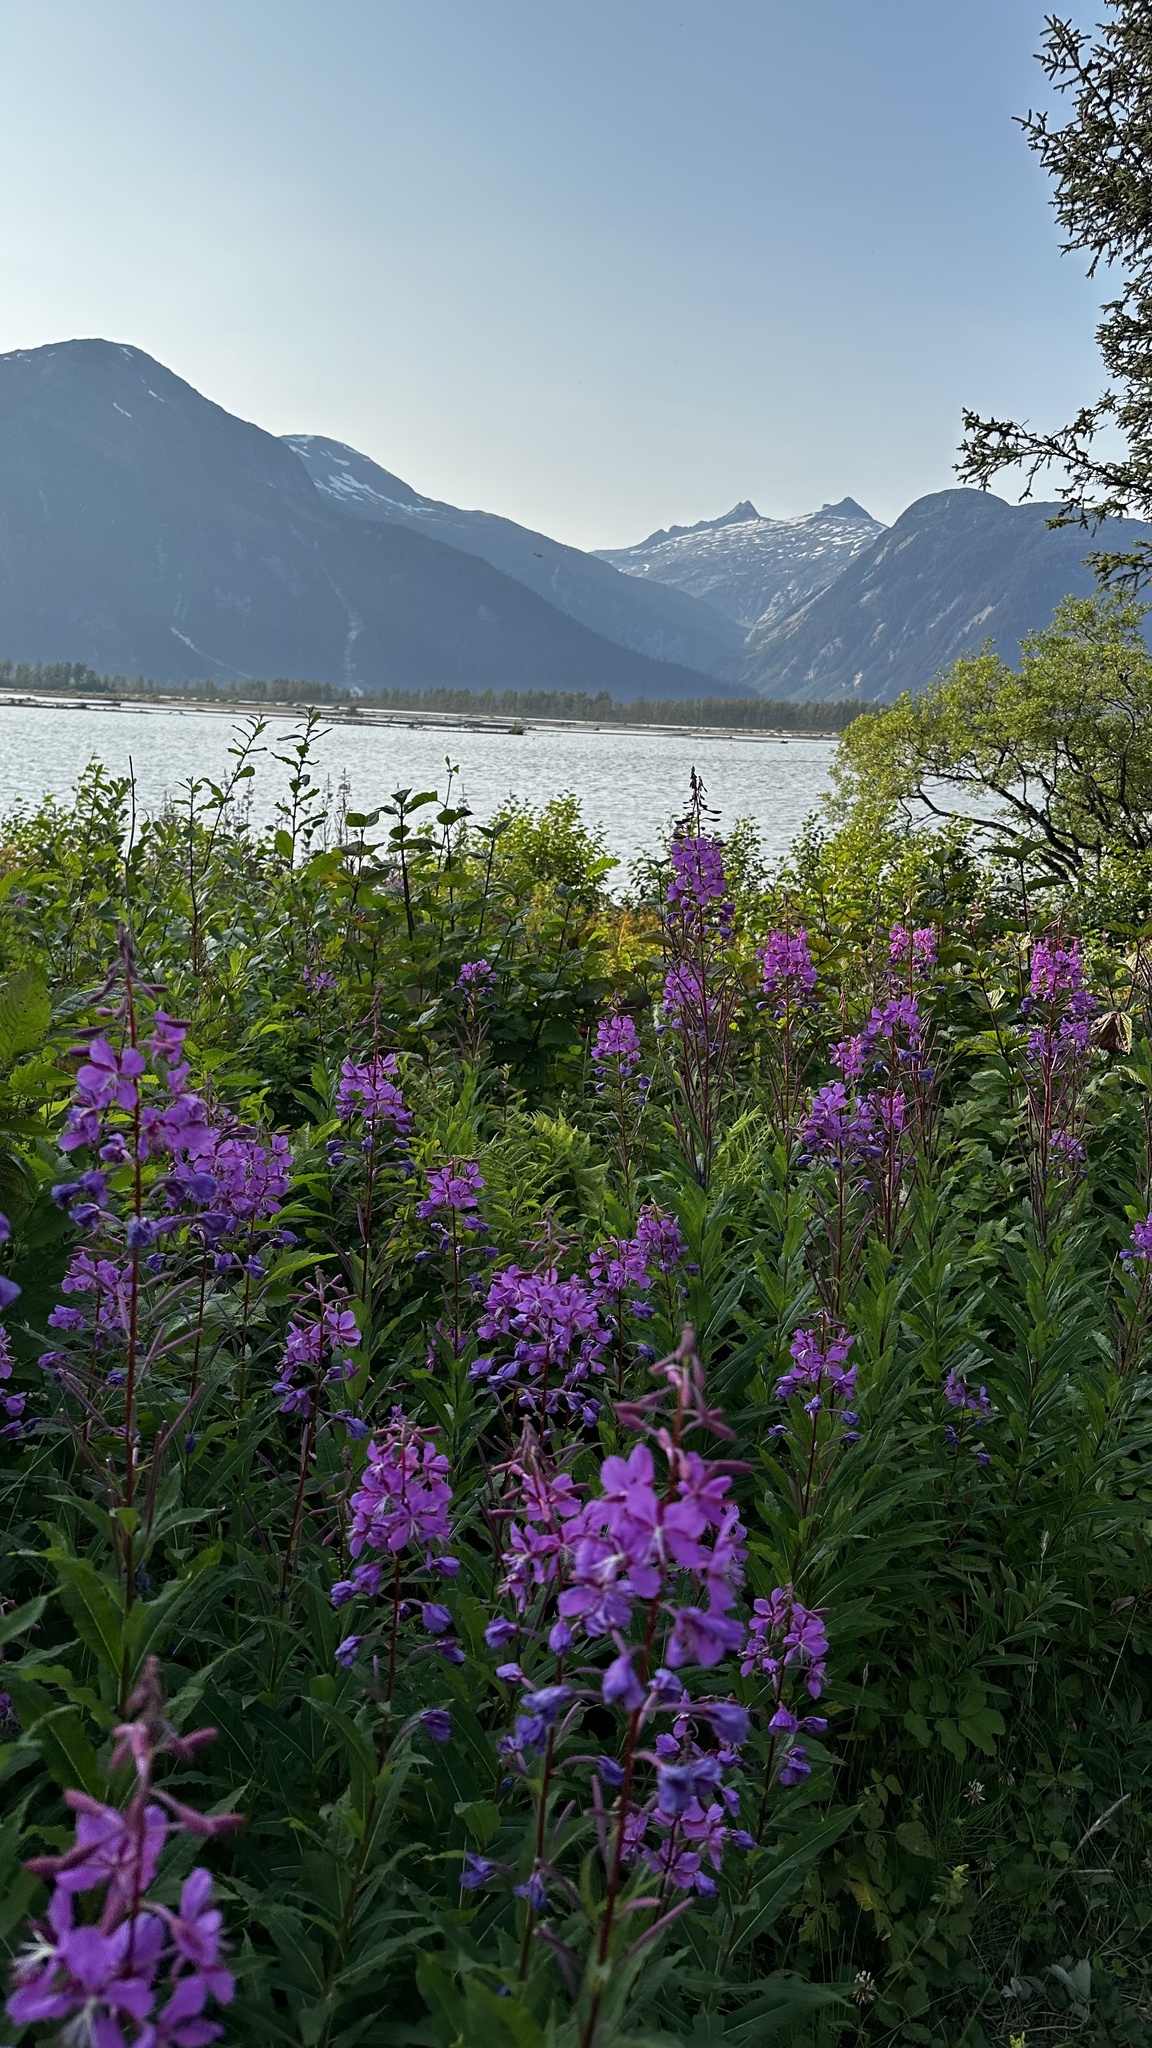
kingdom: Plantae
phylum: Tracheophyta
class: Magnoliopsida
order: Myrtales
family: Onagraceae
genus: Chamaenerion
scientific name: Chamaenerion angustifolium
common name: Fireweed
